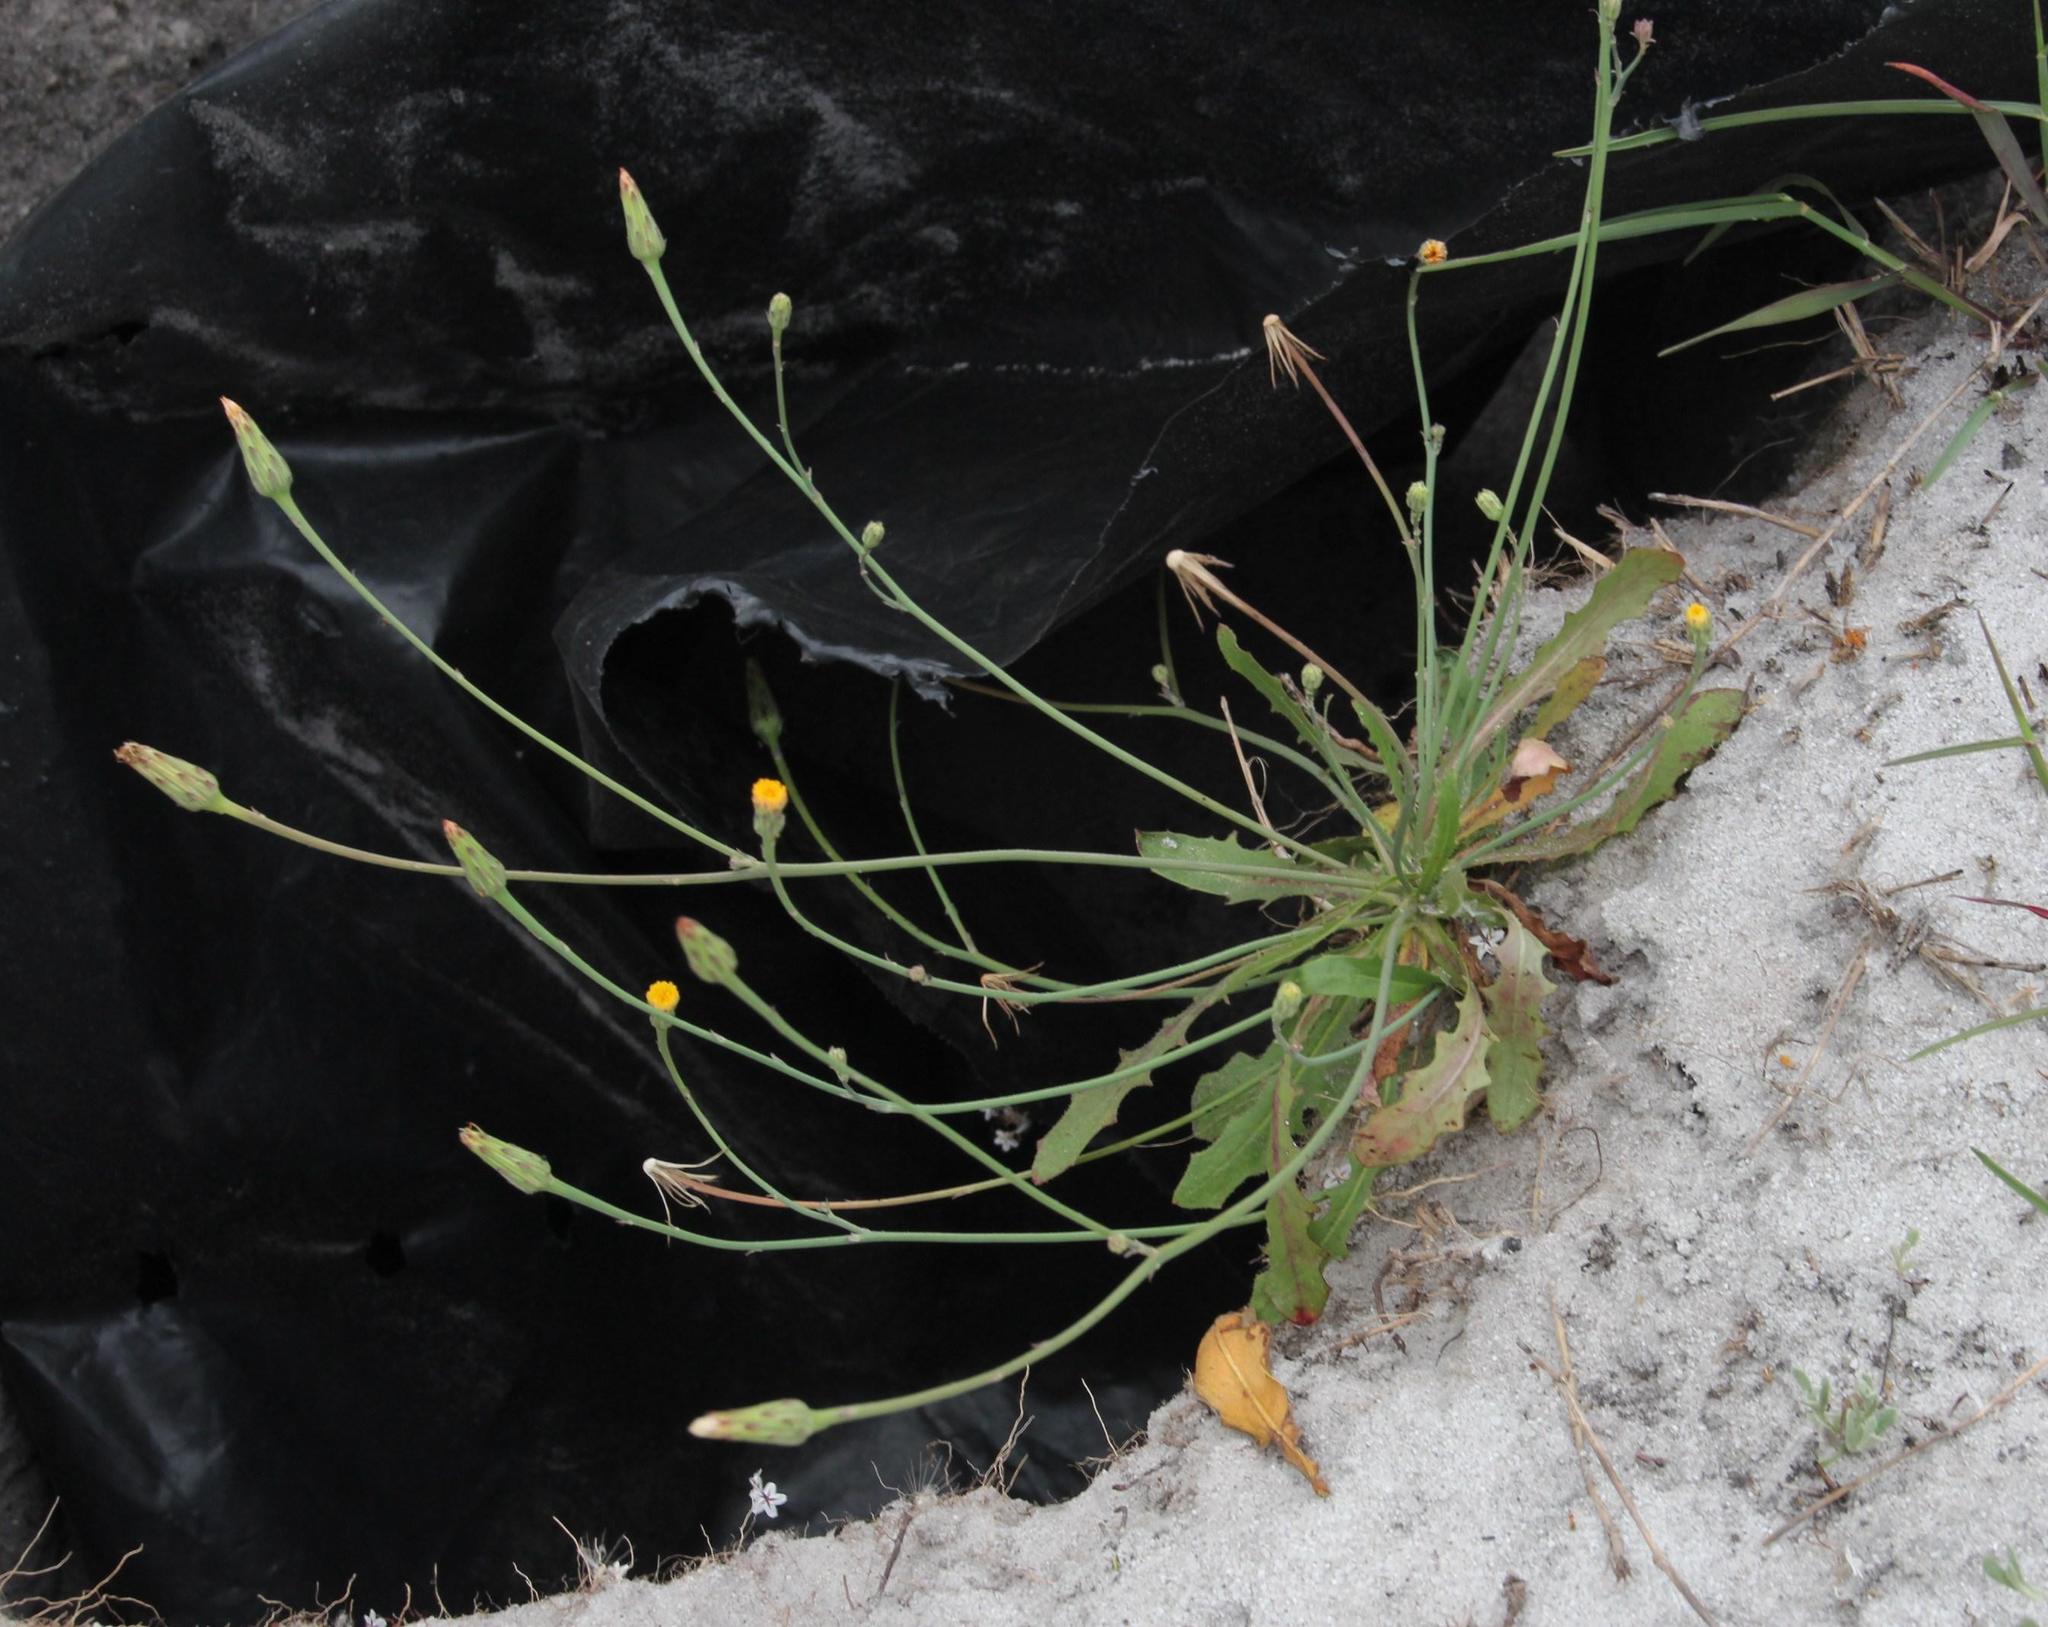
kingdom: Plantae
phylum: Tracheophyta
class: Magnoliopsida
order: Asterales
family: Asteraceae
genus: Hypochaeris
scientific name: Hypochaeris radicata
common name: Flatweed
